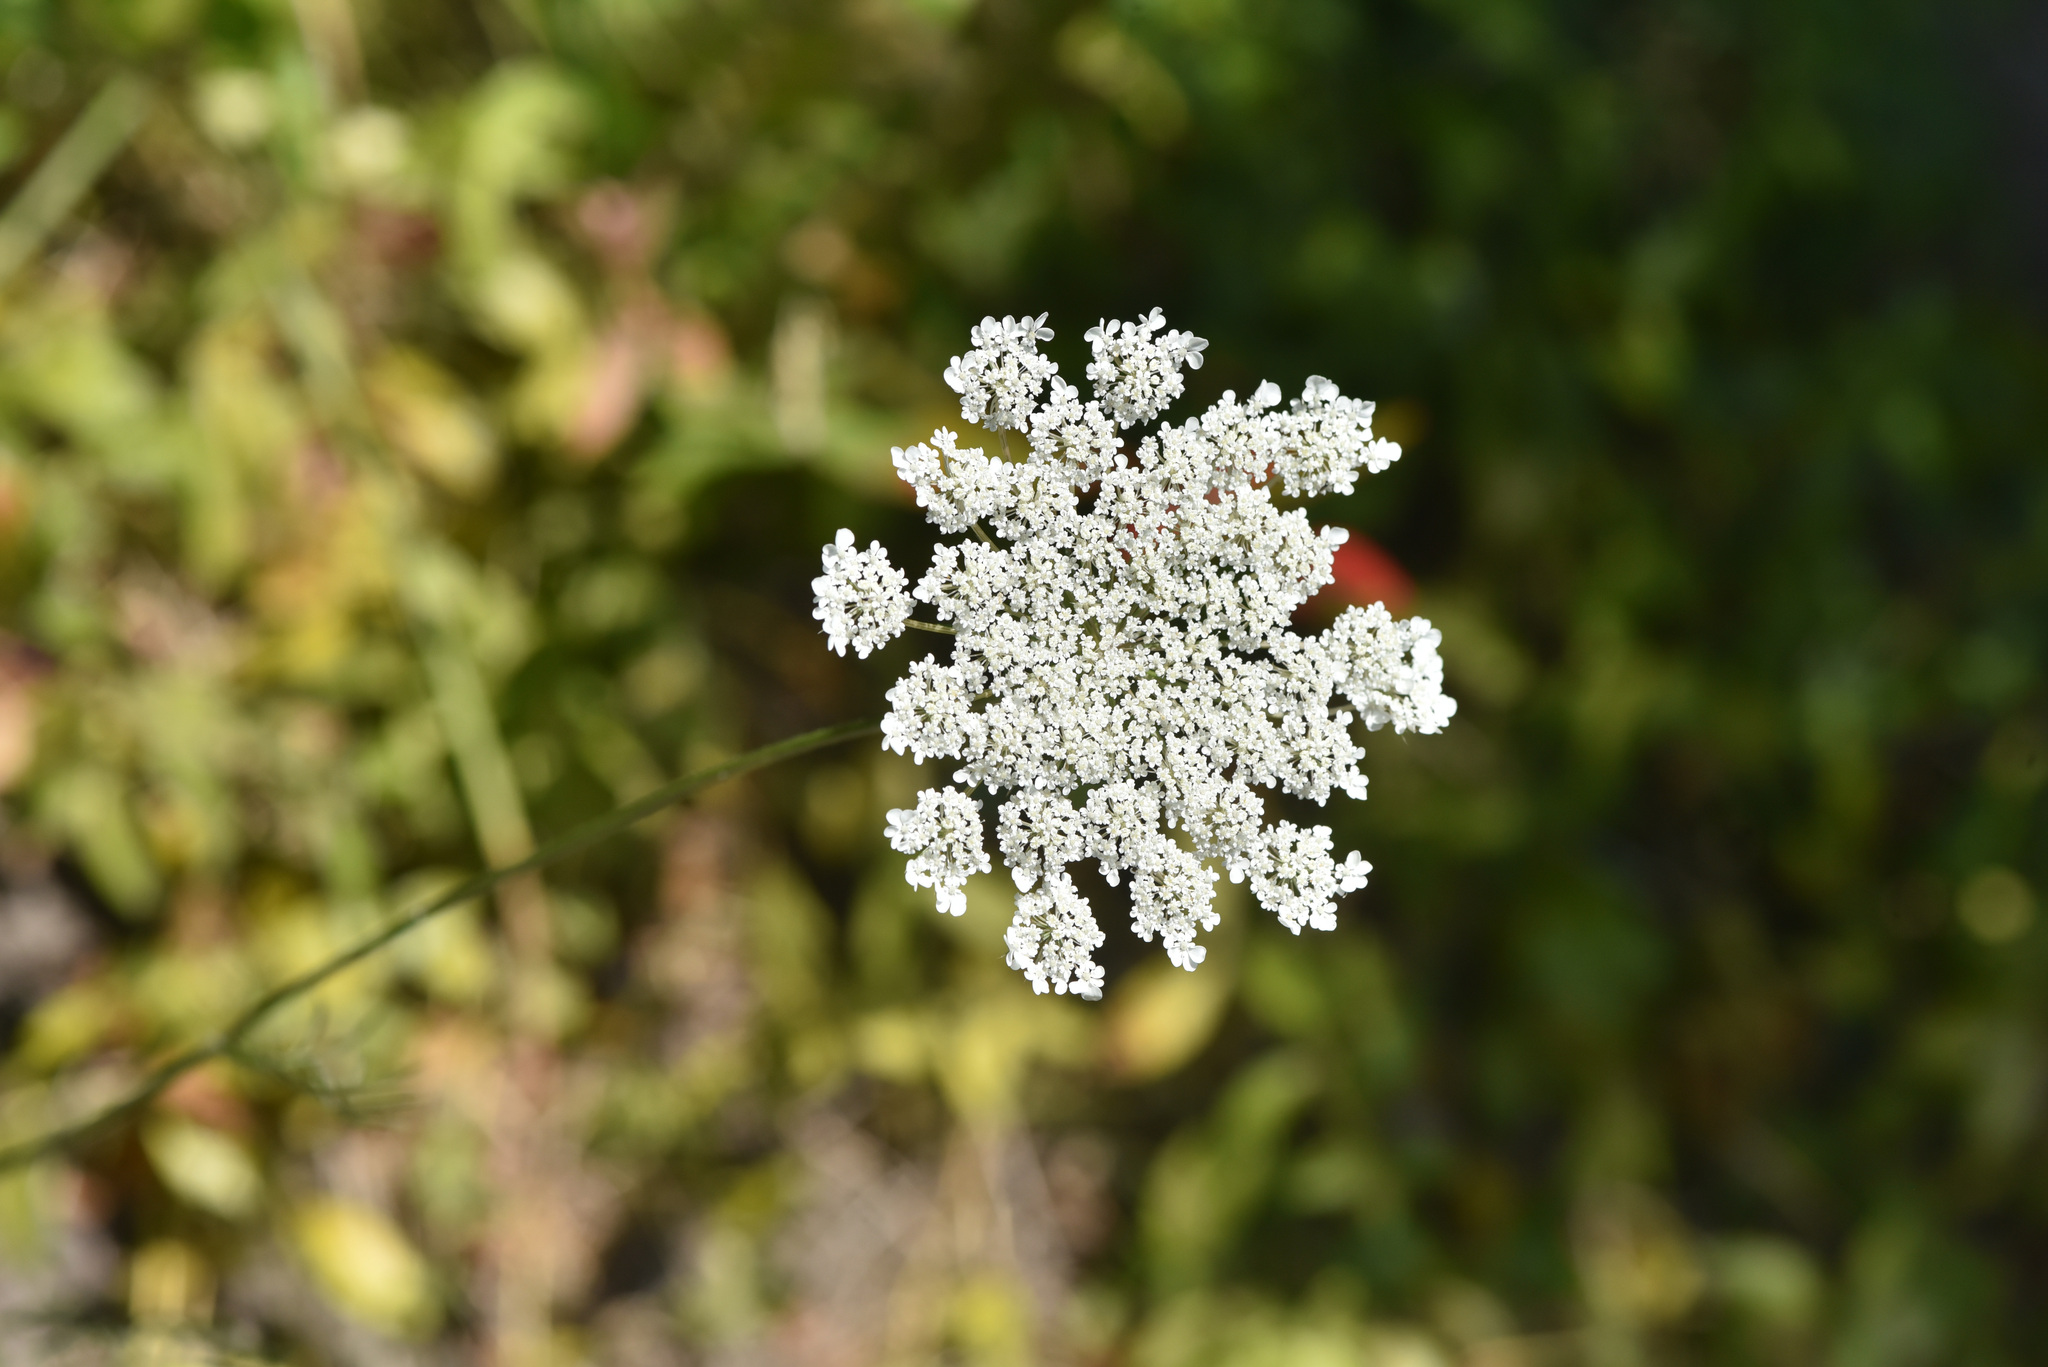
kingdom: Plantae
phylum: Tracheophyta
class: Magnoliopsida
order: Apiales
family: Apiaceae
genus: Daucus
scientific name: Daucus carota
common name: Wild carrot
